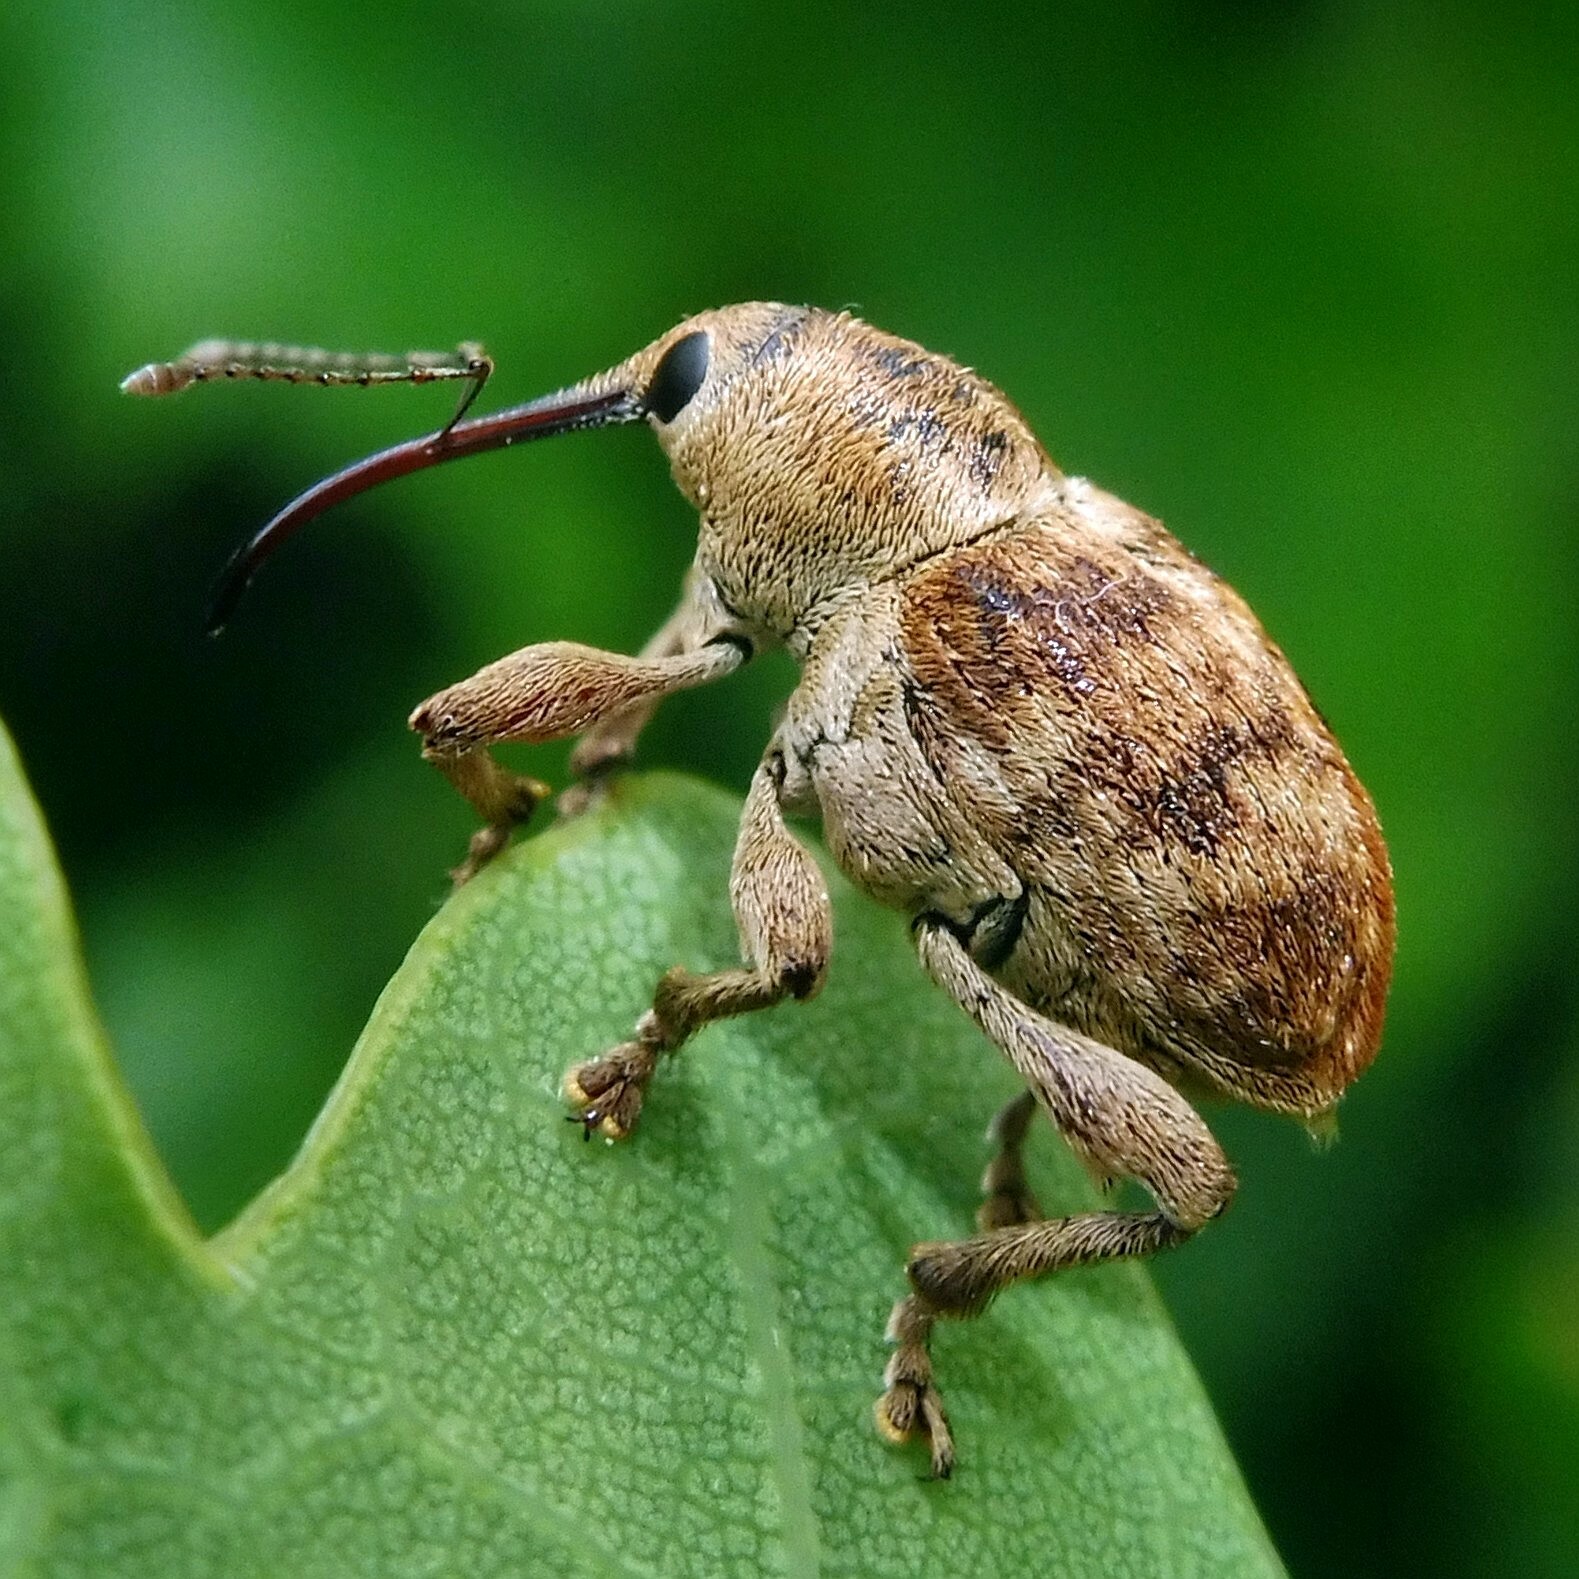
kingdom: Animalia
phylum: Arthropoda
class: Insecta
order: Coleoptera
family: Curculionidae
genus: Curculio
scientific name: Curculio venosus
